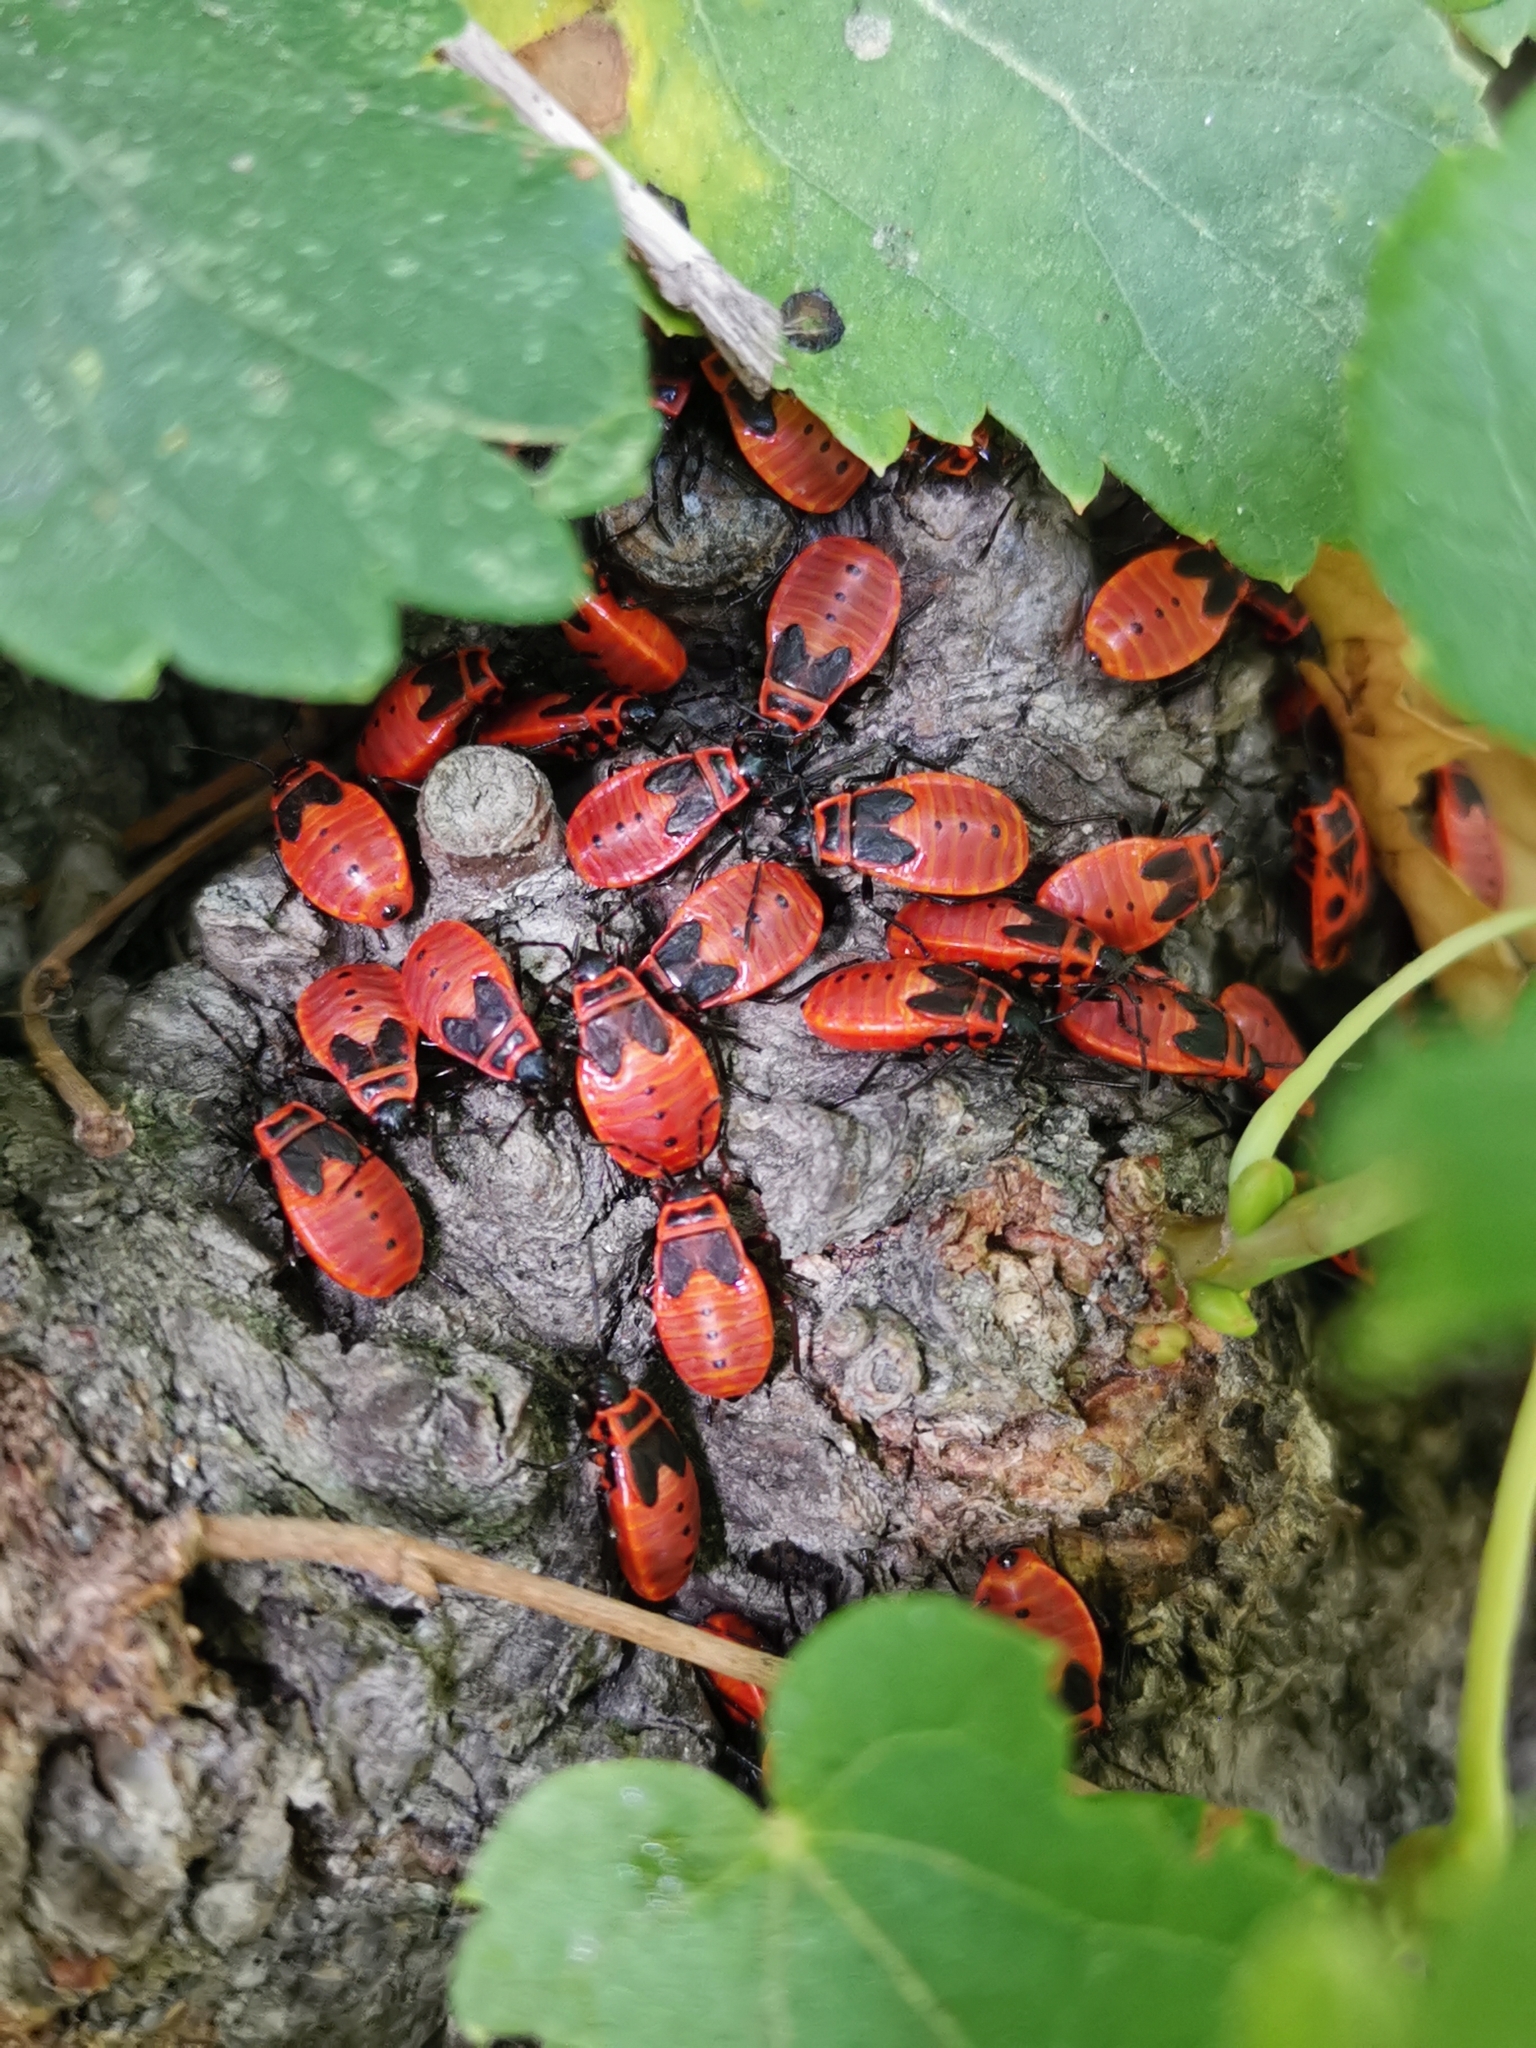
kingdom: Animalia
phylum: Arthropoda
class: Insecta
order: Hemiptera
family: Pyrrhocoridae
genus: Pyrrhocoris
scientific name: Pyrrhocoris apterus
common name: Firebug
